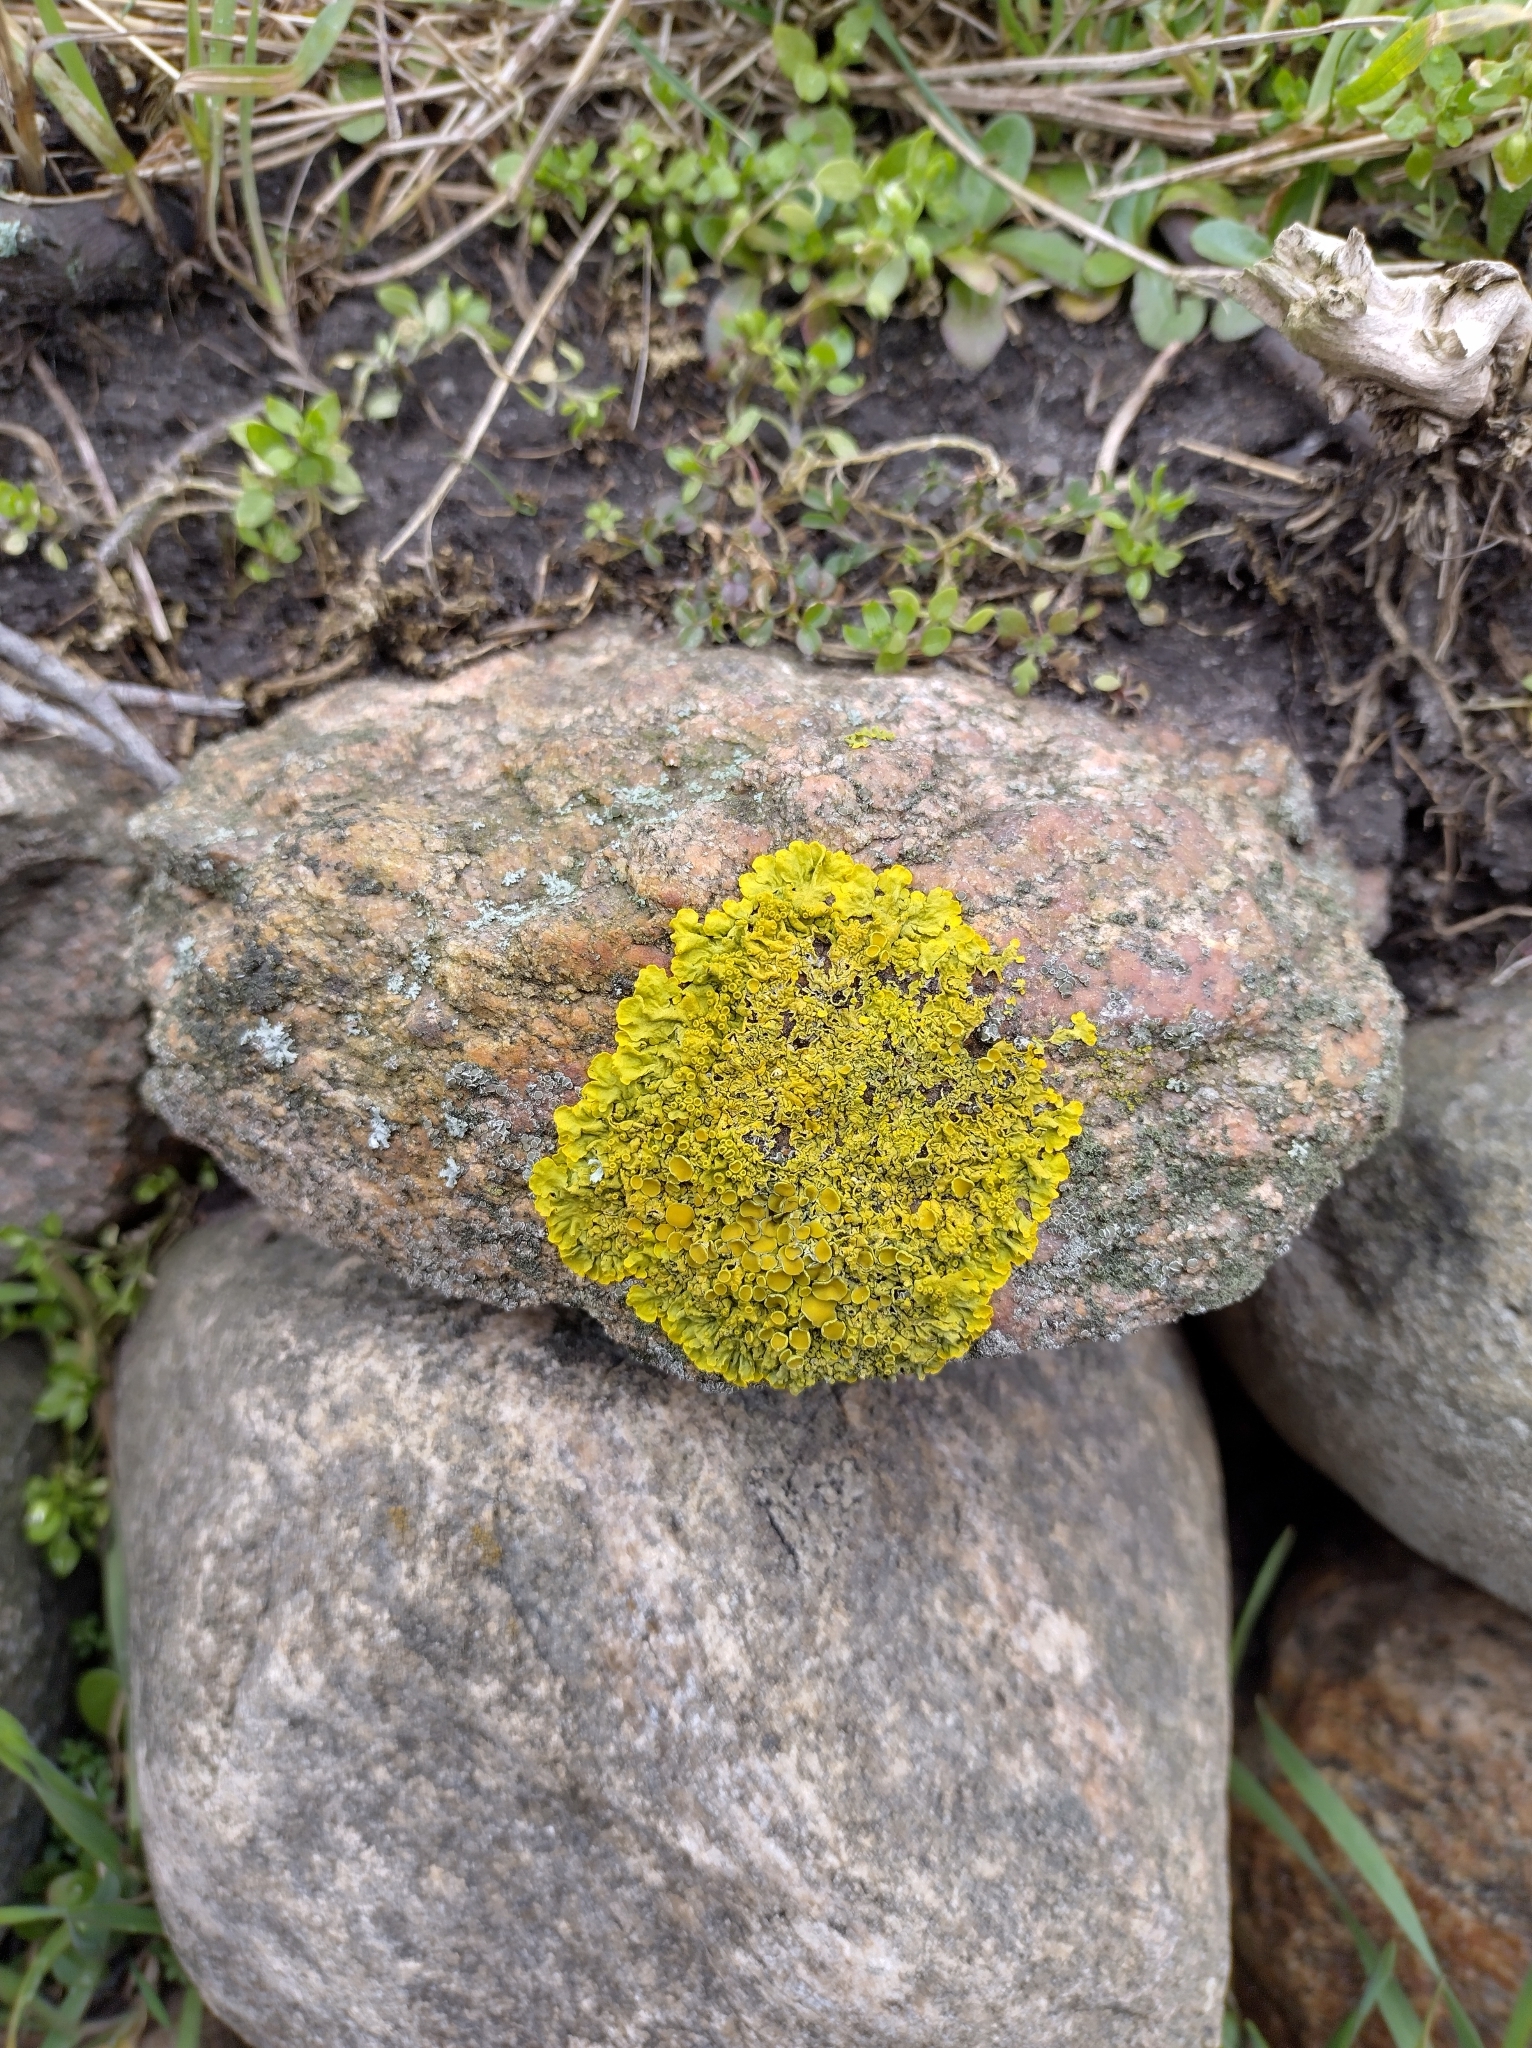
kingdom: Fungi
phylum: Ascomycota
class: Lecanoromycetes
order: Teloschistales
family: Teloschistaceae
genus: Xanthoria
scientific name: Xanthoria parietina
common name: Common orange lichen
